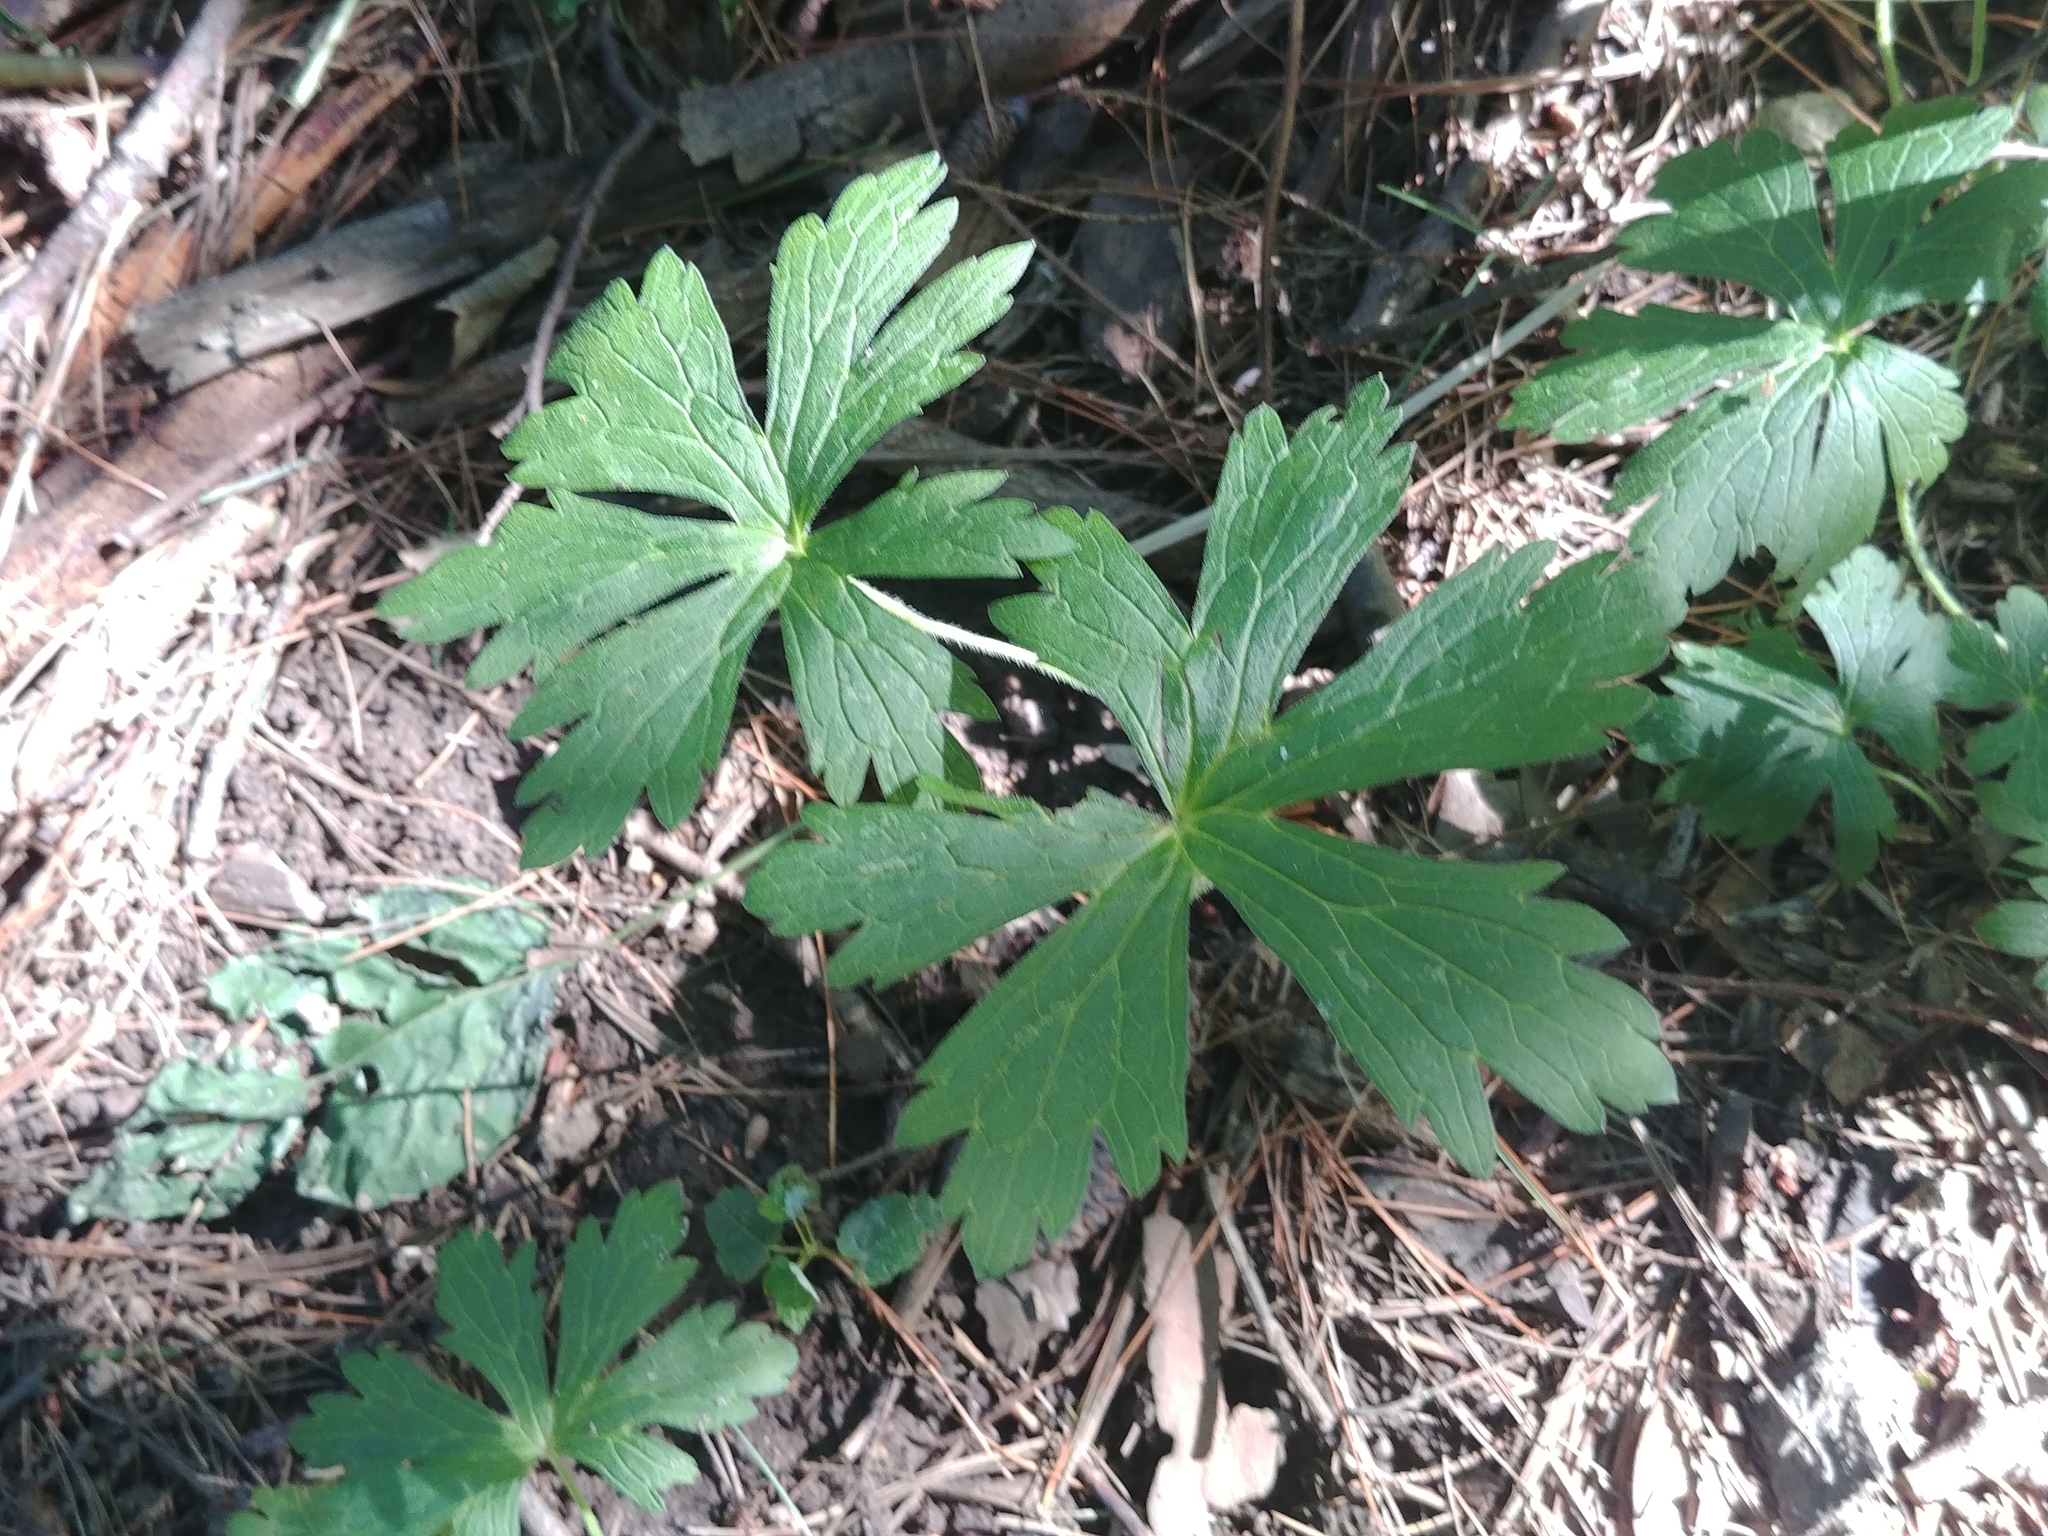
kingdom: Plantae
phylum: Tracheophyta
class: Magnoliopsida
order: Geraniales
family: Geraniaceae
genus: Geranium
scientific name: Geranium maculatum
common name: Spotted geranium
